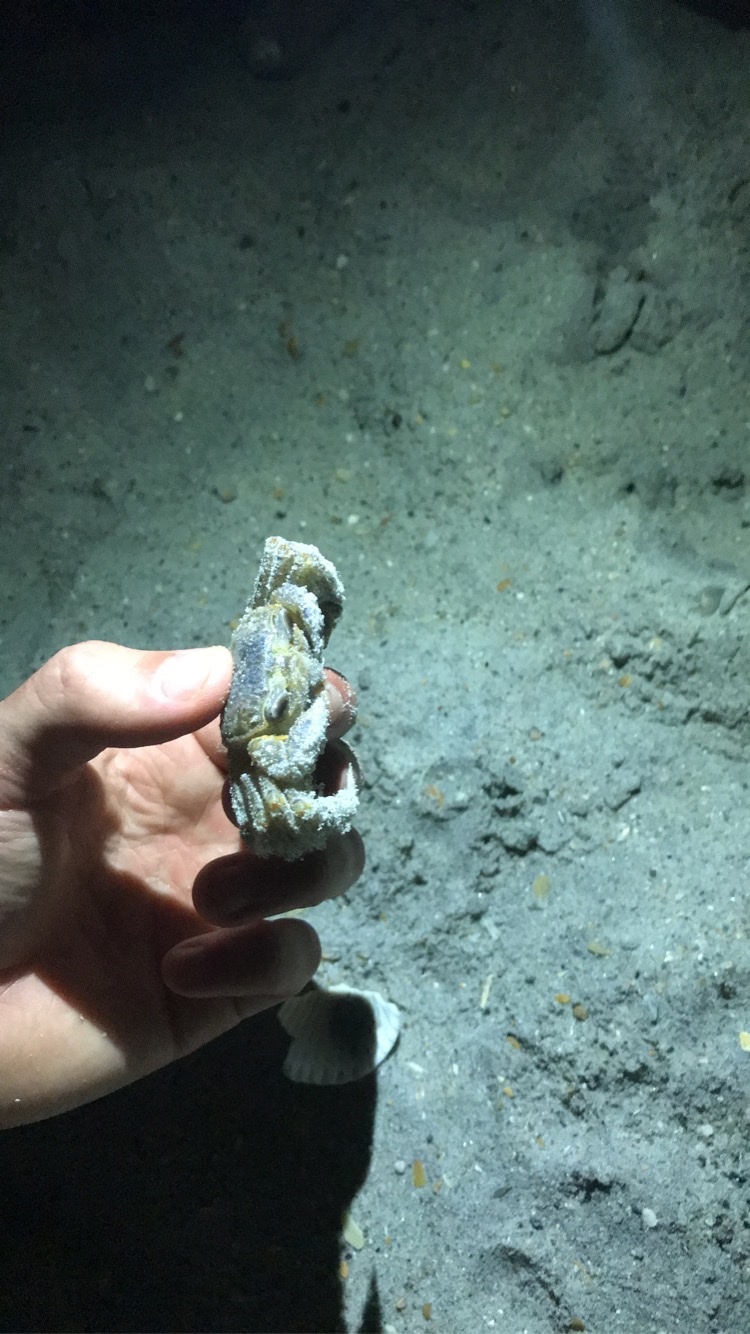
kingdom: Animalia
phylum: Arthropoda
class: Malacostraca
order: Decapoda
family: Ocypodidae
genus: Ocypode
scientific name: Ocypode quadrata
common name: Ghost crab
